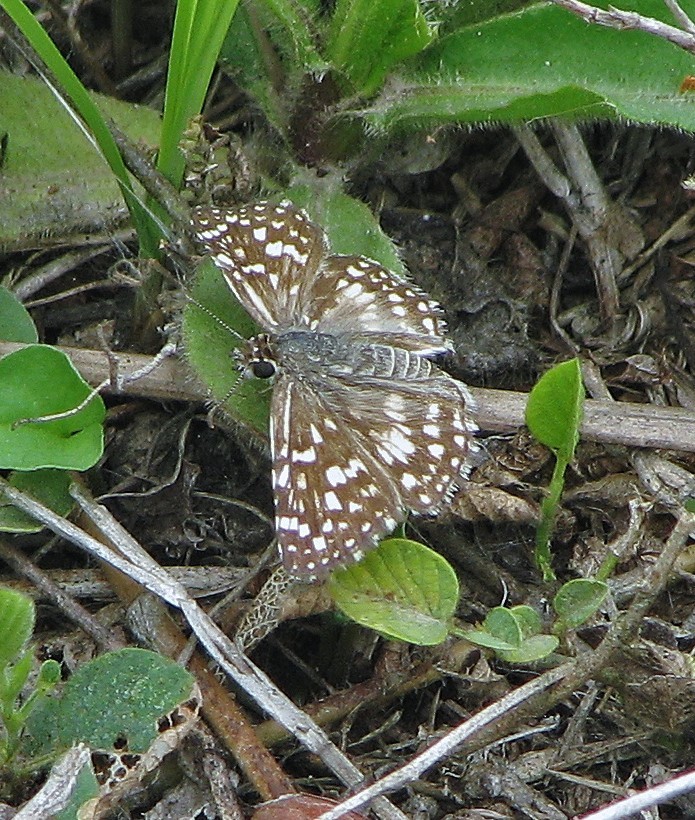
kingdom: Animalia
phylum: Arthropoda
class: Insecta
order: Lepidoptera
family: Hesperiidae
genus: Pyrgus
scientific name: Pyrgus oileus
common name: Tropical checkered-skipper
